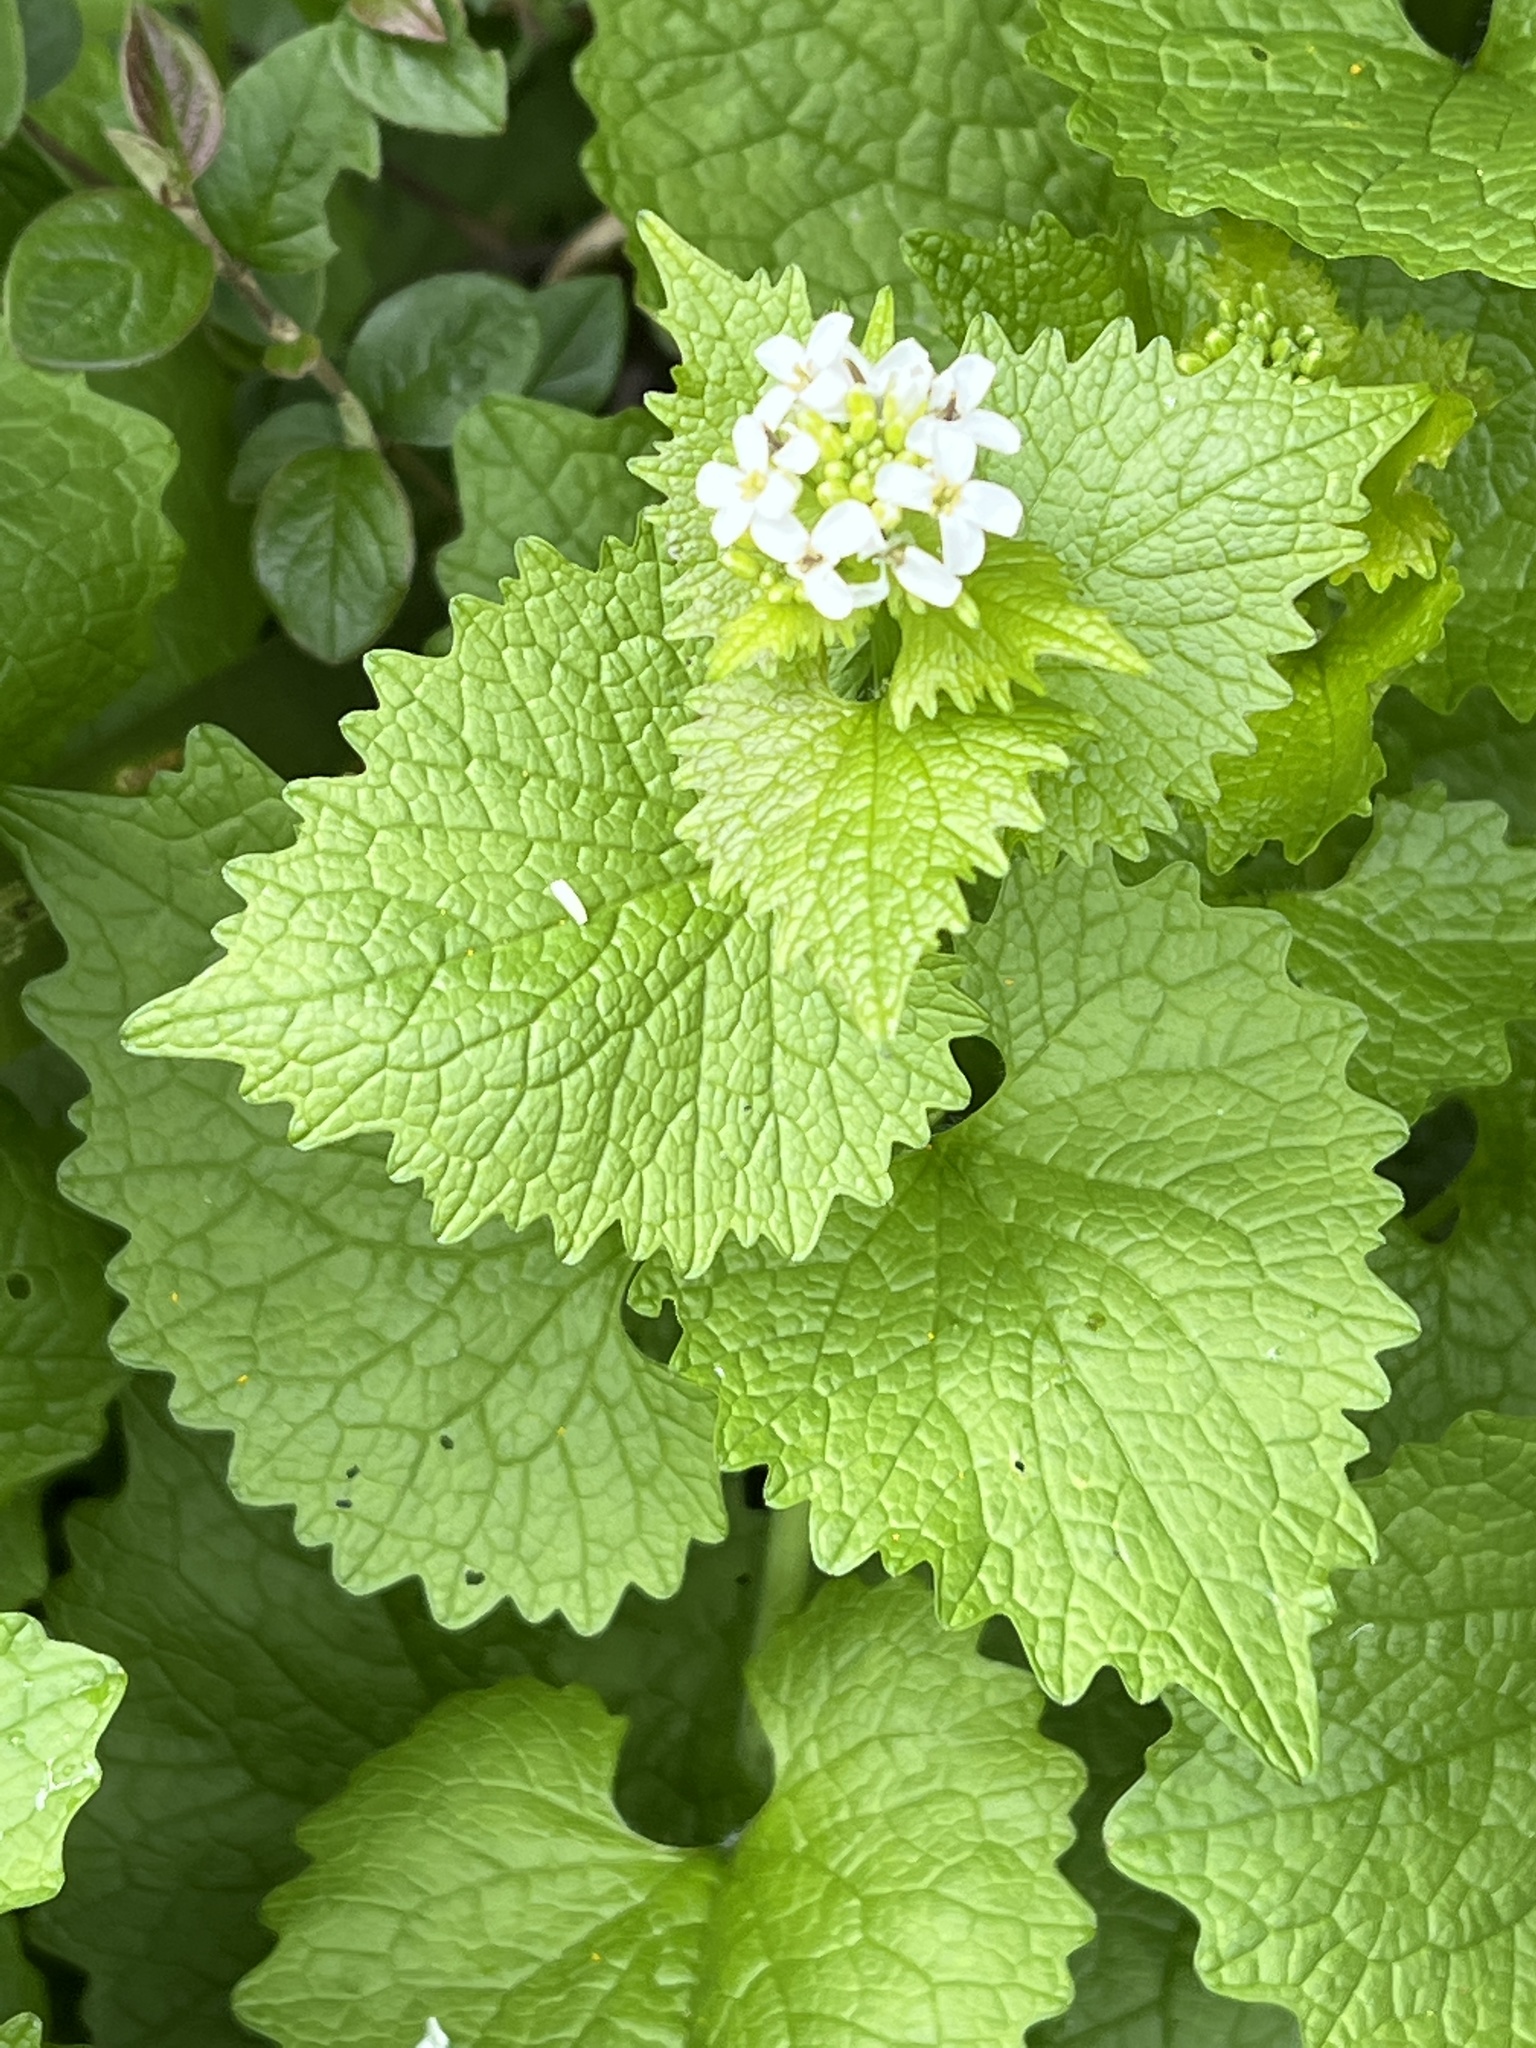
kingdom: Plantae
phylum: Tracheophyta
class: Magnoliopsida
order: Brassicales
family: Brassicaceae
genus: Alliaria
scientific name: Alliaria petiolata
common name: Garlic mustard
